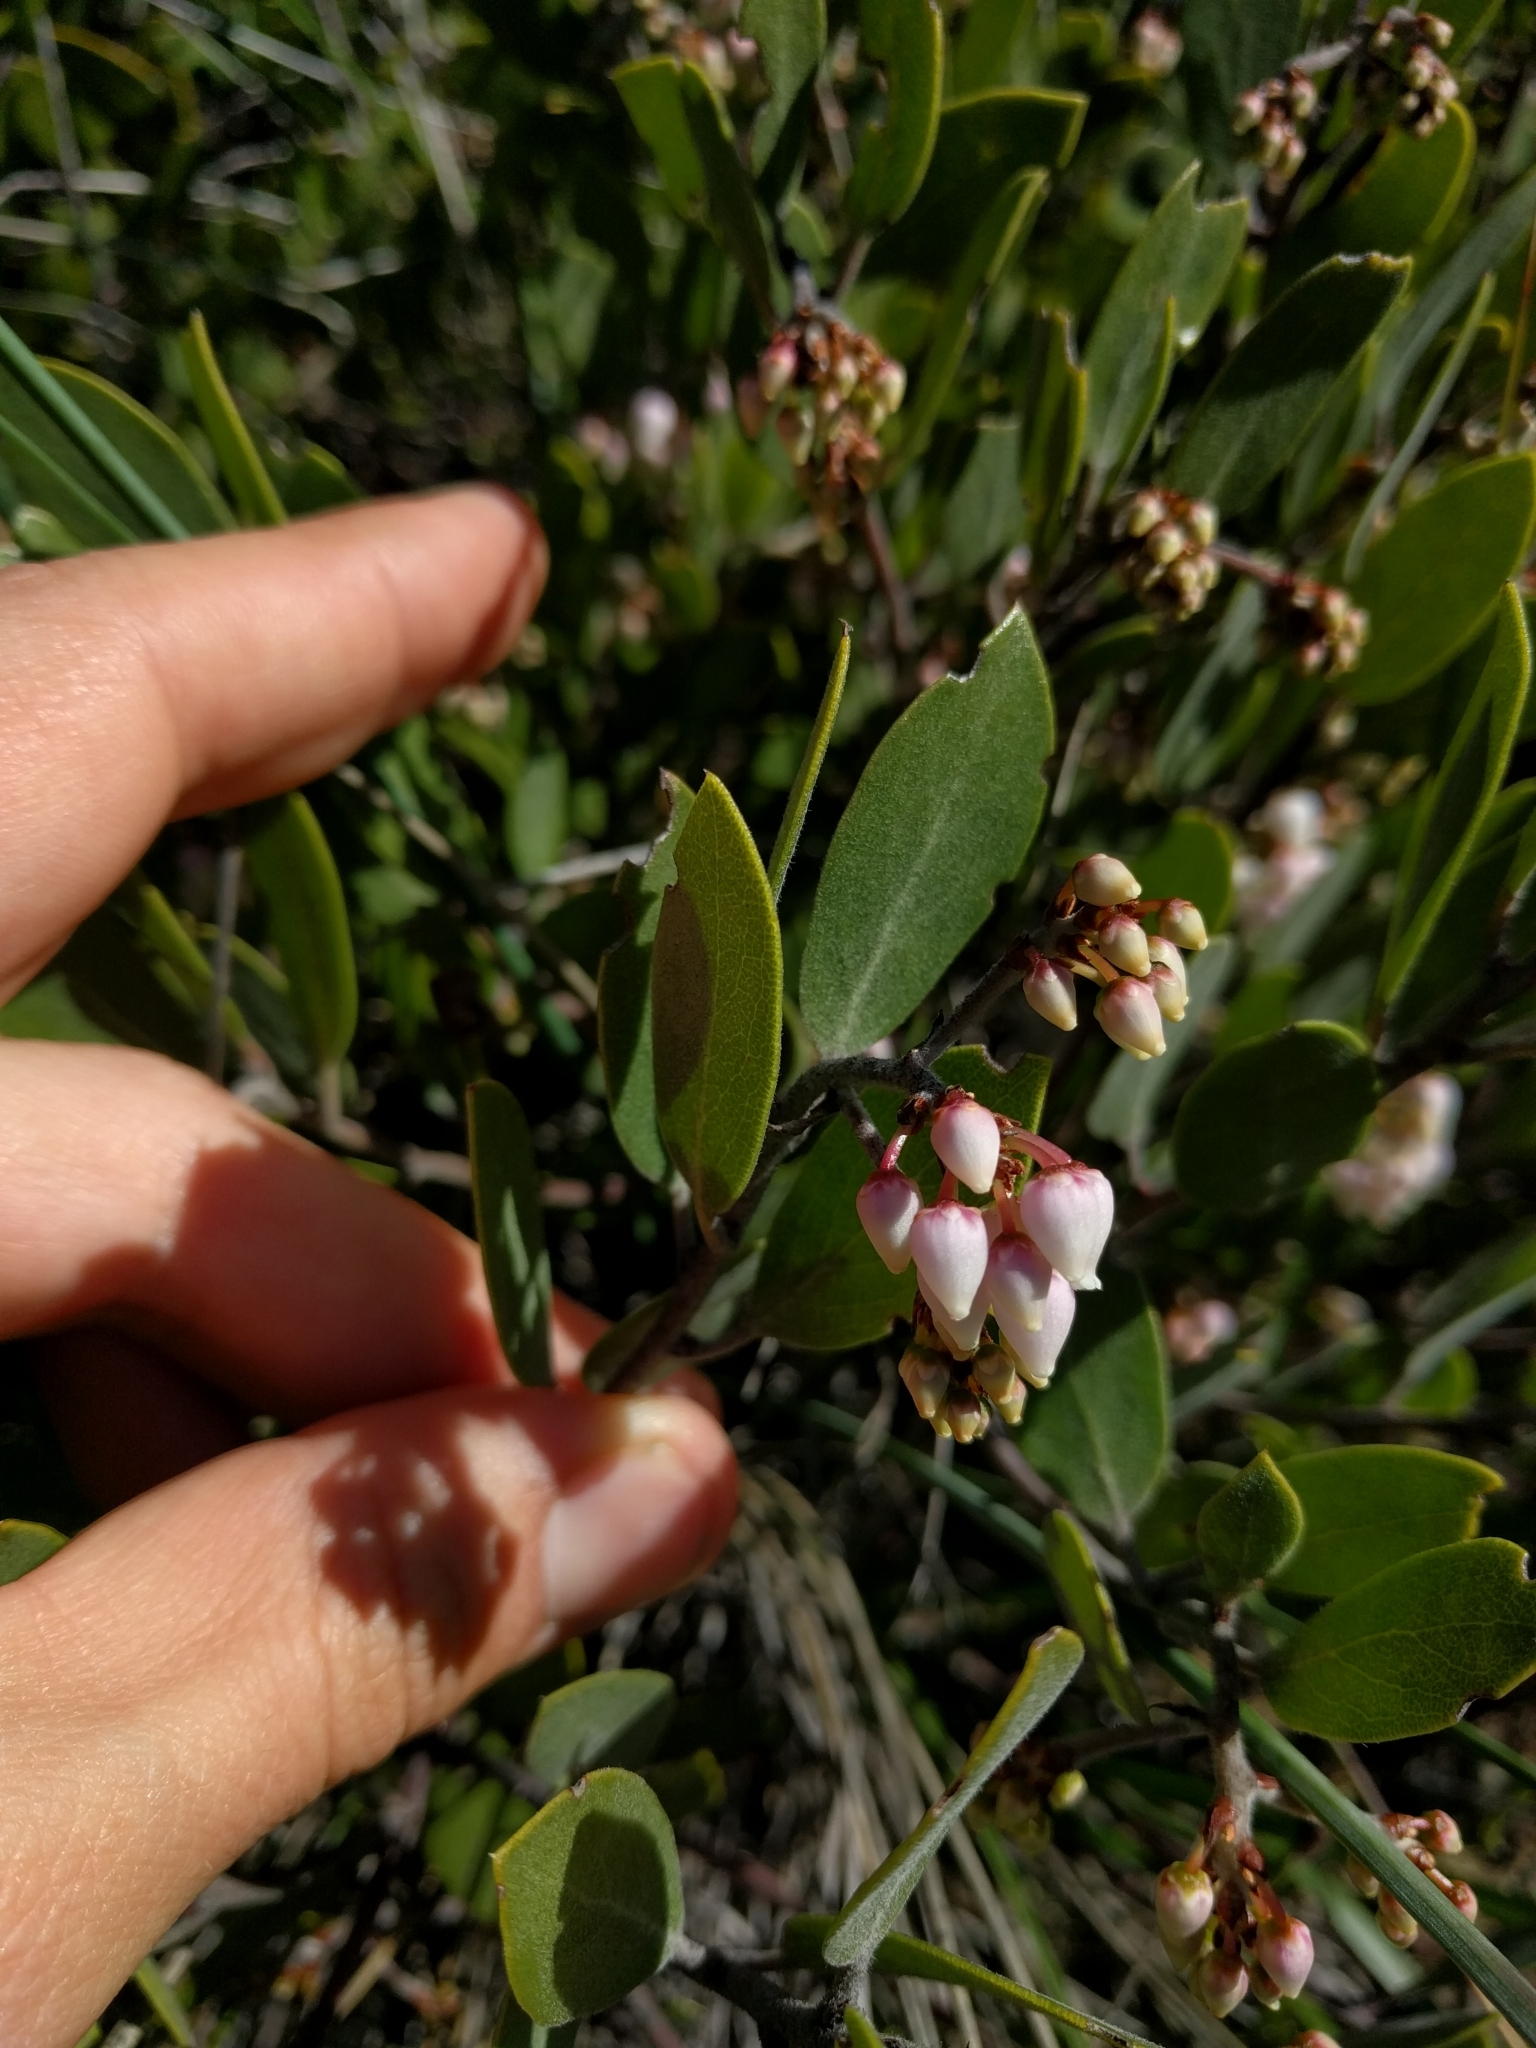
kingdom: Plantae
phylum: Tracheophyta
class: Magnoliopsida
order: Ericales
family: Ericaceae
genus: Arctostaphylos
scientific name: Arctostaphylos montana
